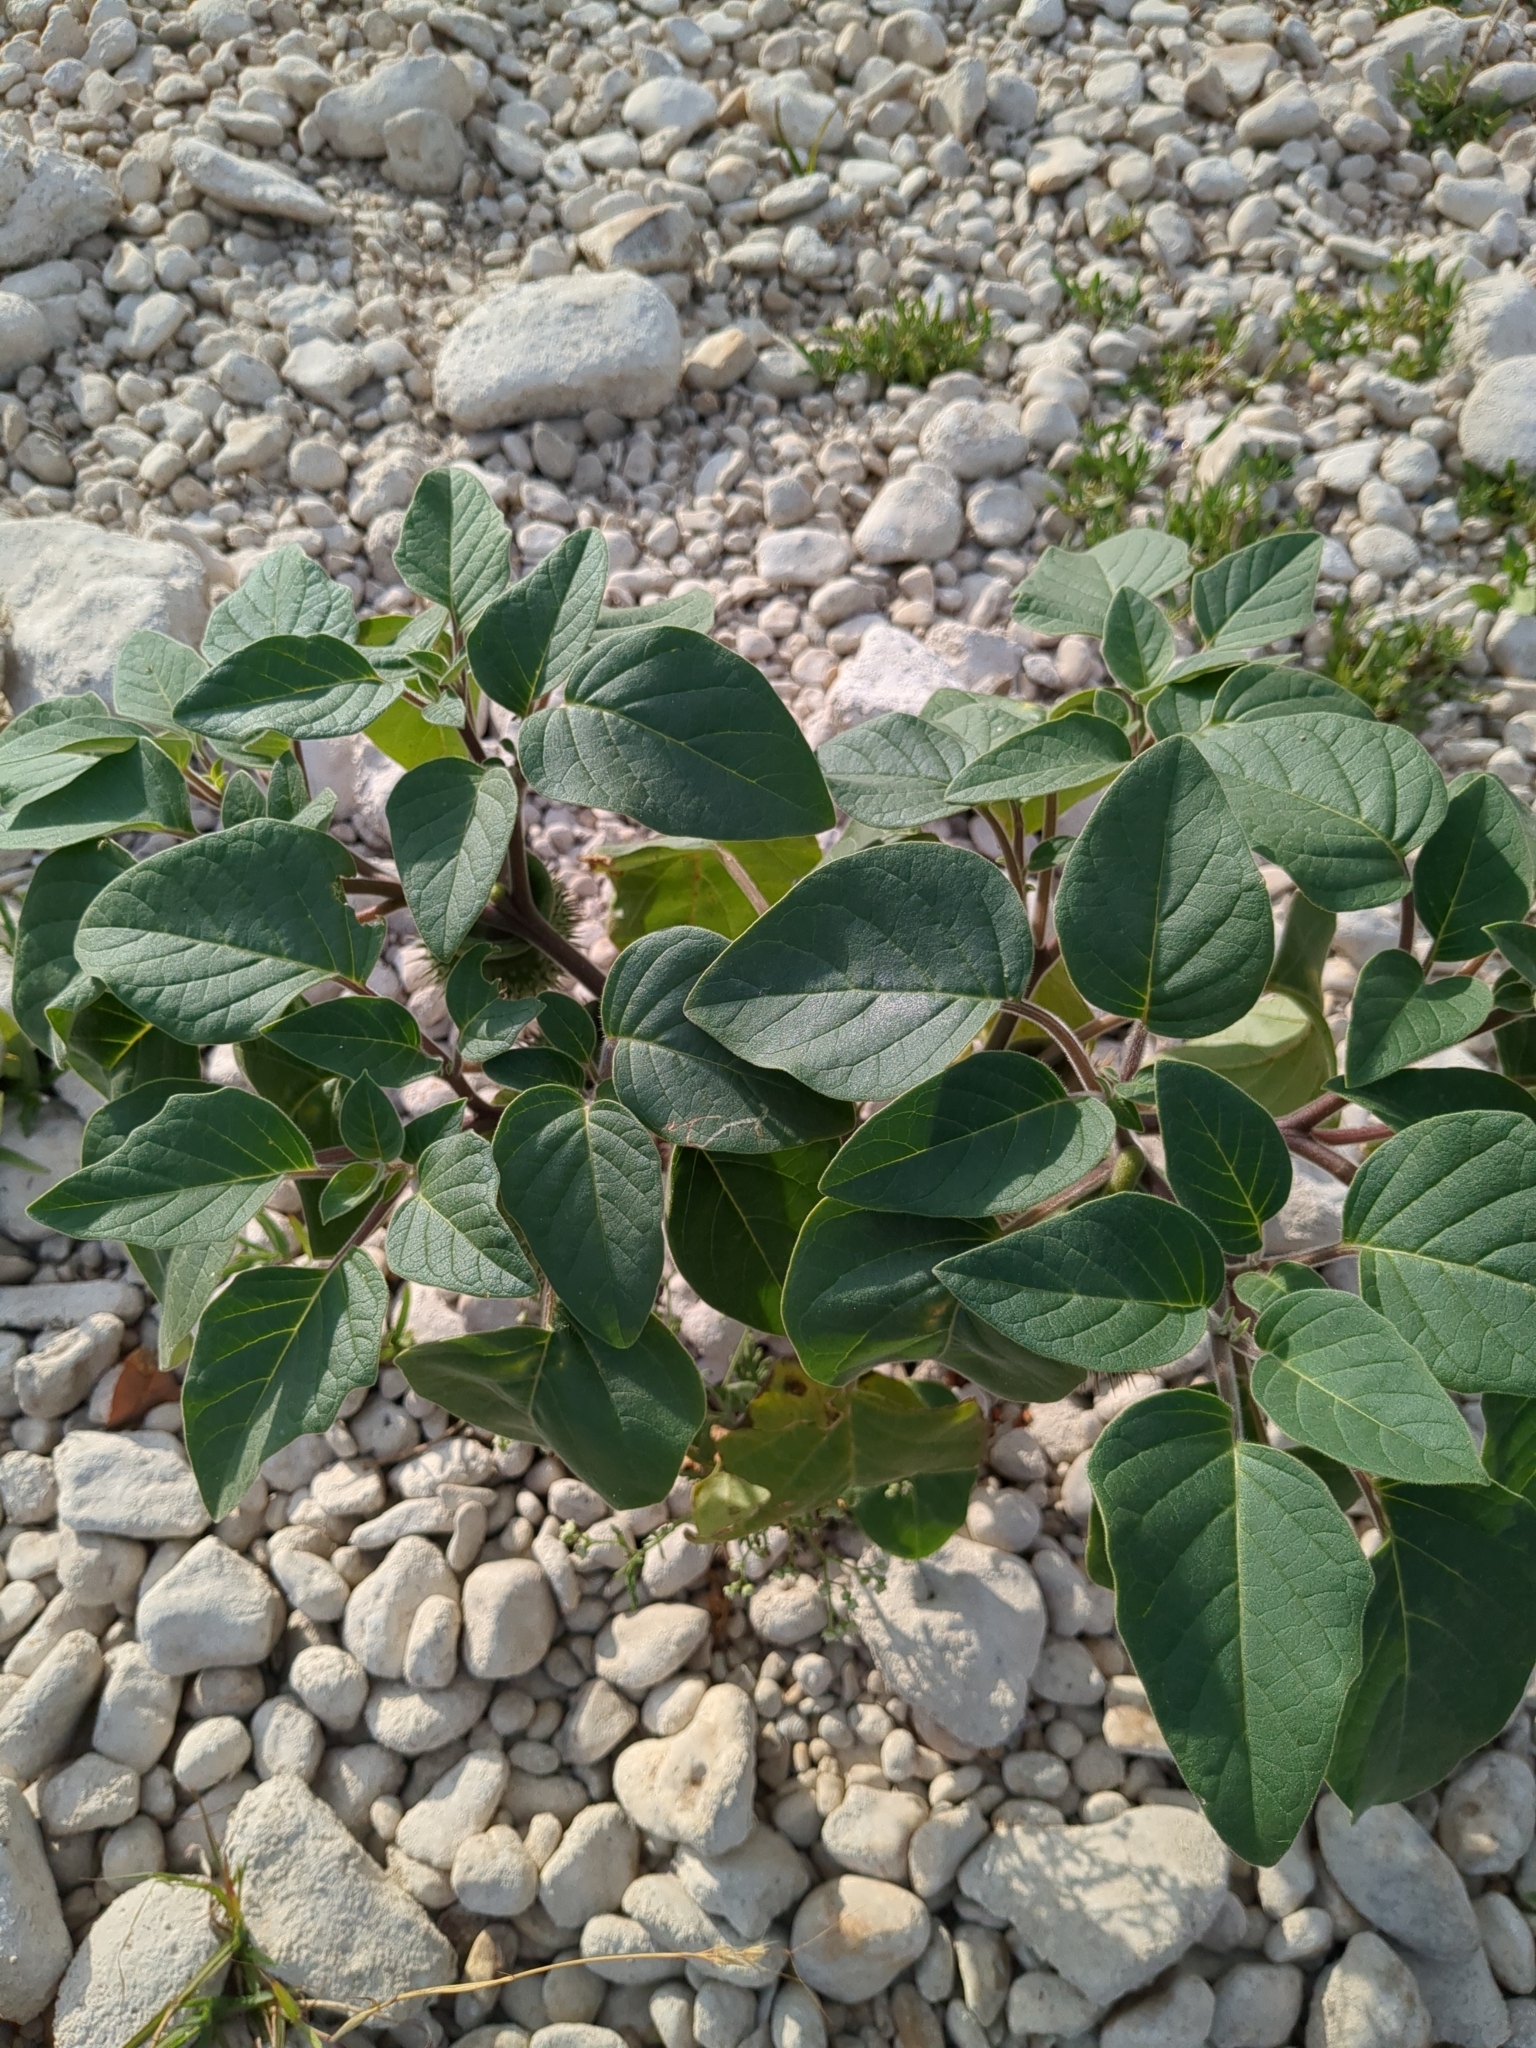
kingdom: Plantae
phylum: Tracheophyta
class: Magnoliopsida
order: Solanales
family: Solanaceae
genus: Datura
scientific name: Datura innoxia
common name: Downy thorn-apple
